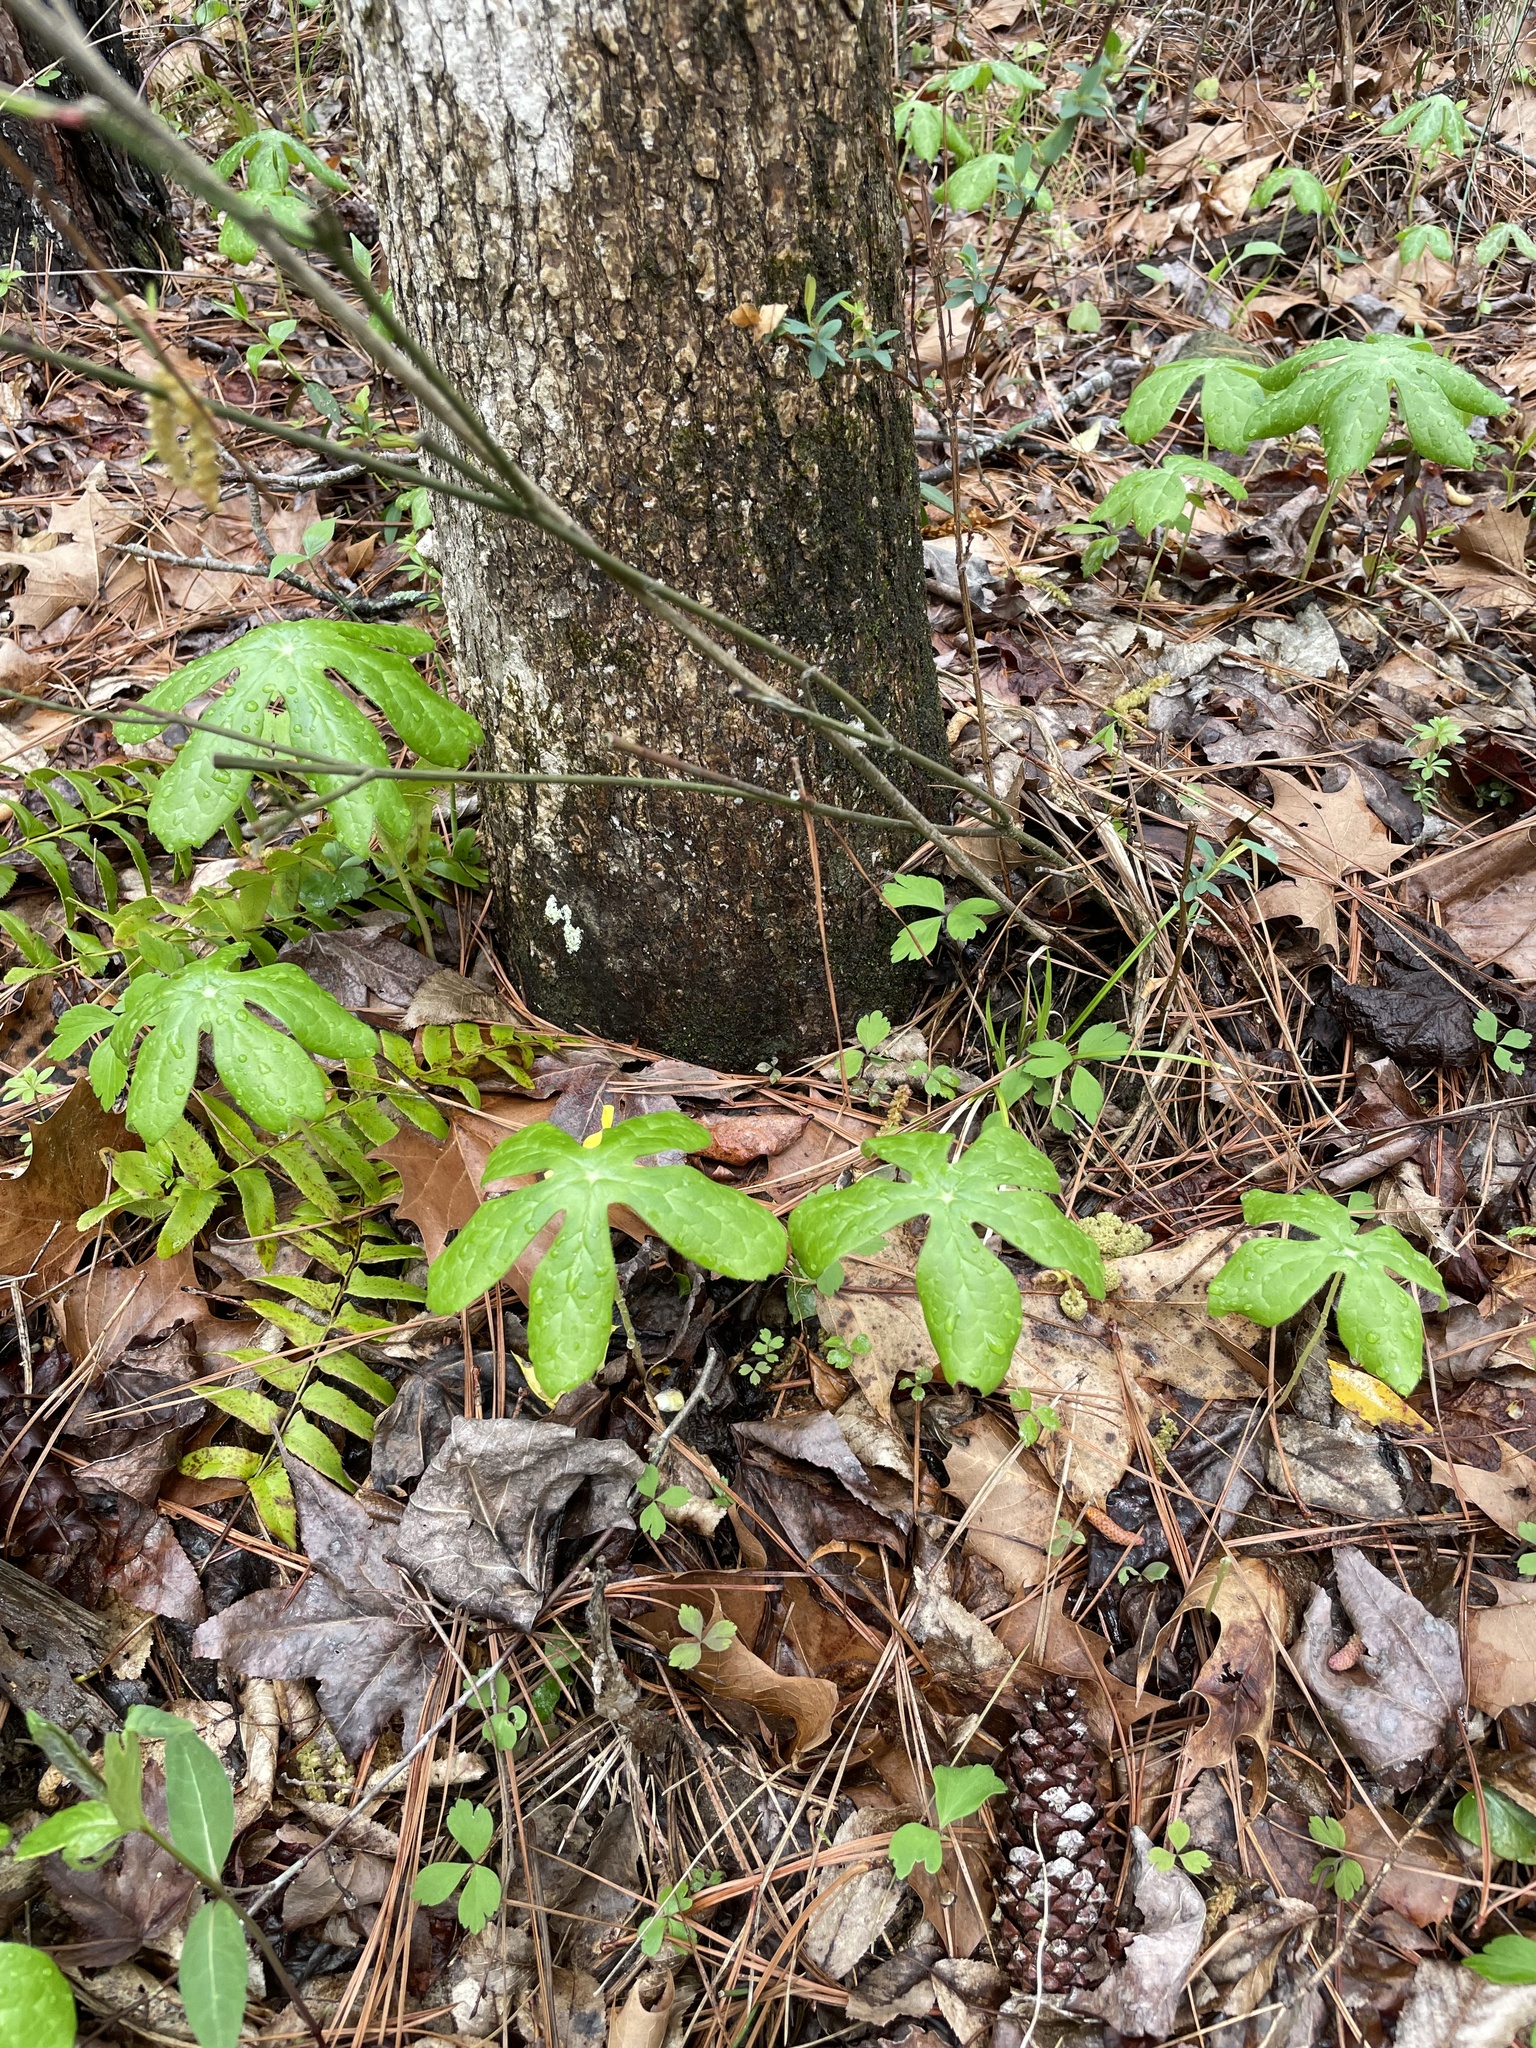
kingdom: Plantae
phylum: Tracheophyta
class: Magnoliopsida
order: Ranunculales
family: Berberidaceae
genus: Podophyllum
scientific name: Podophyllum peltatum
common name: Wild mandrake
